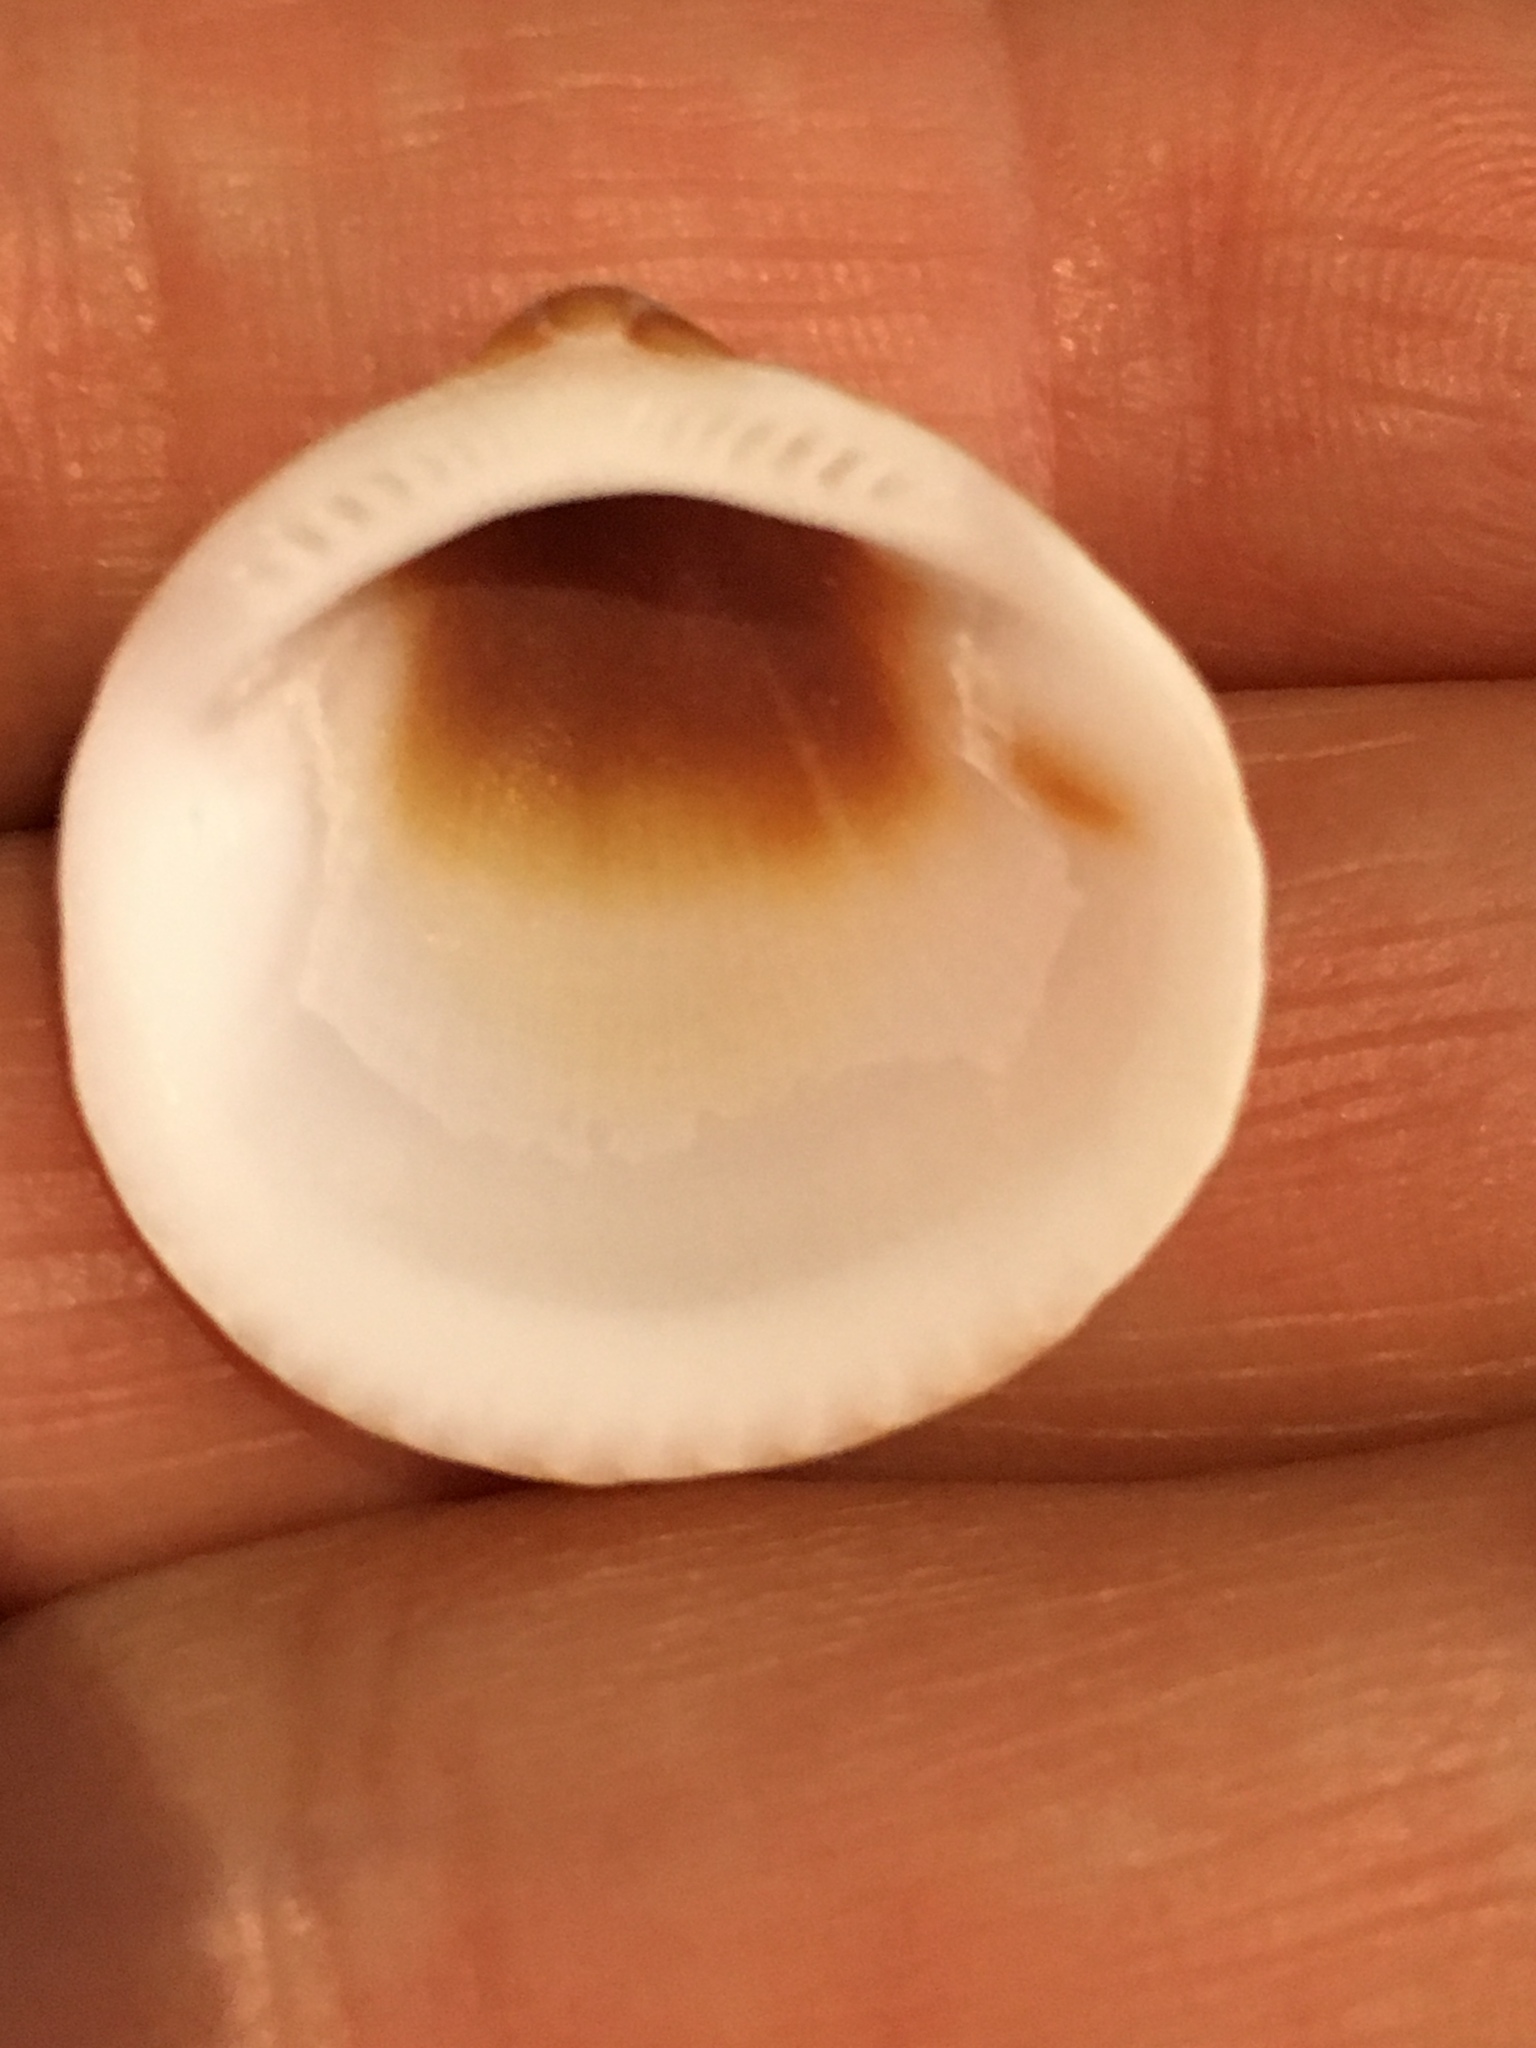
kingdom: Animalia
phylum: Mollusca
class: Bivalvia
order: Arcida
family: Glycymerididae
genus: Glycymeris
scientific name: Glycymeris spectralis
